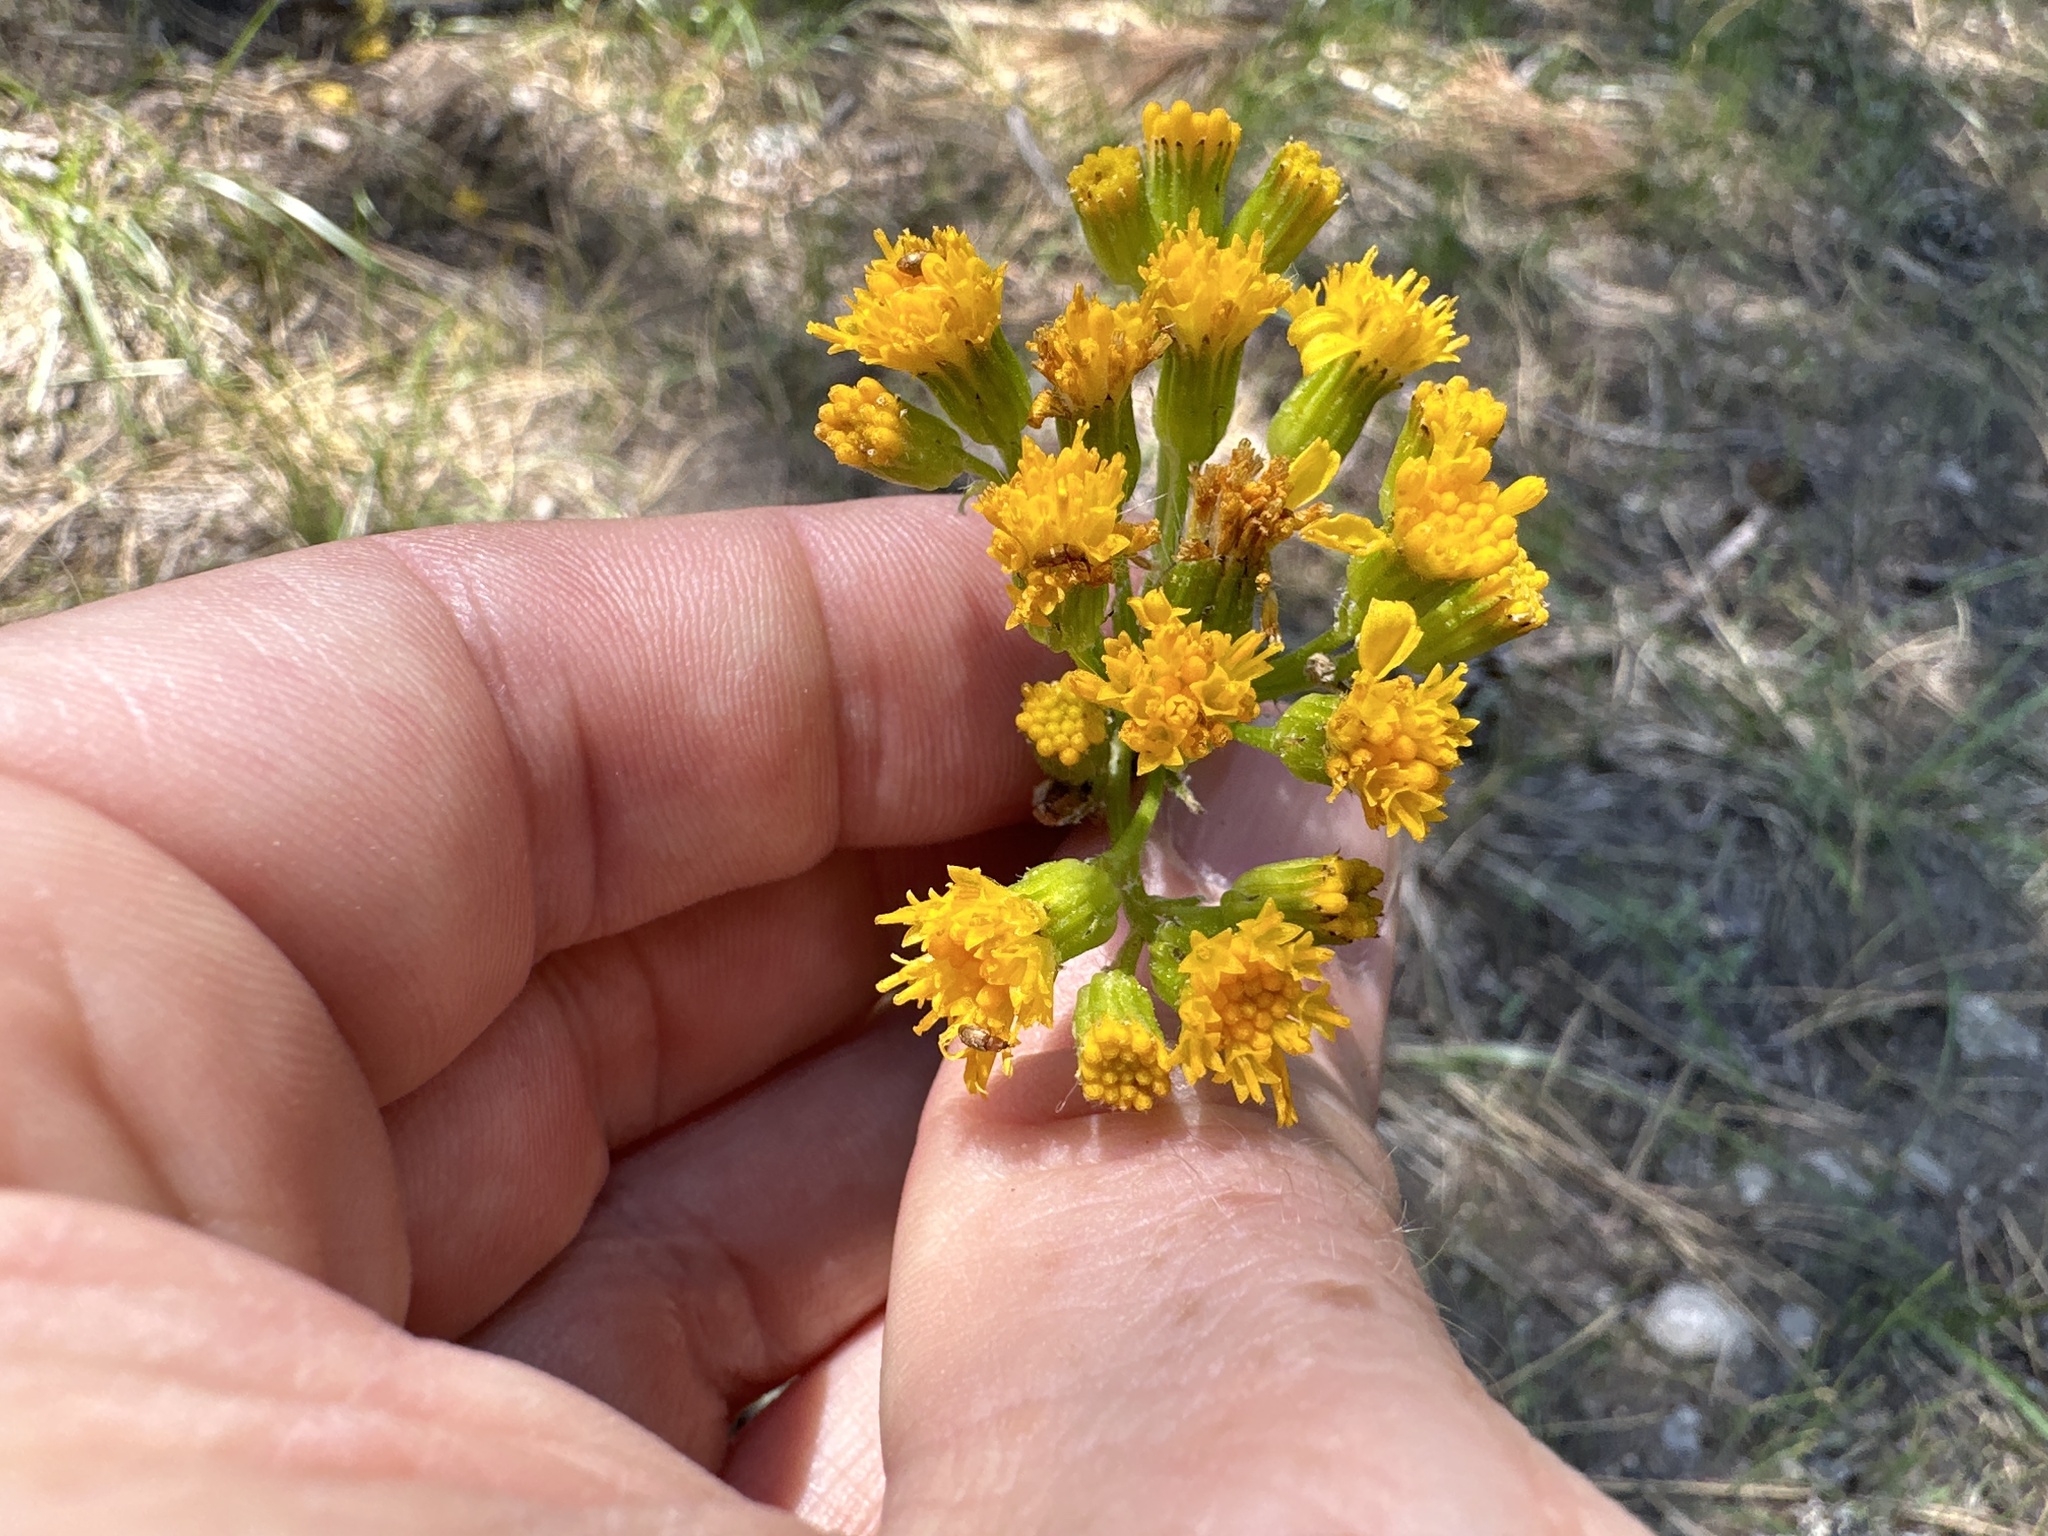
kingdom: Plantae
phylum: Tracheophyta
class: Magnoliopsida
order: Asterales
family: Asteraceae
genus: Senecio
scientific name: Senecio integerrimus
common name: Gaugeplant
